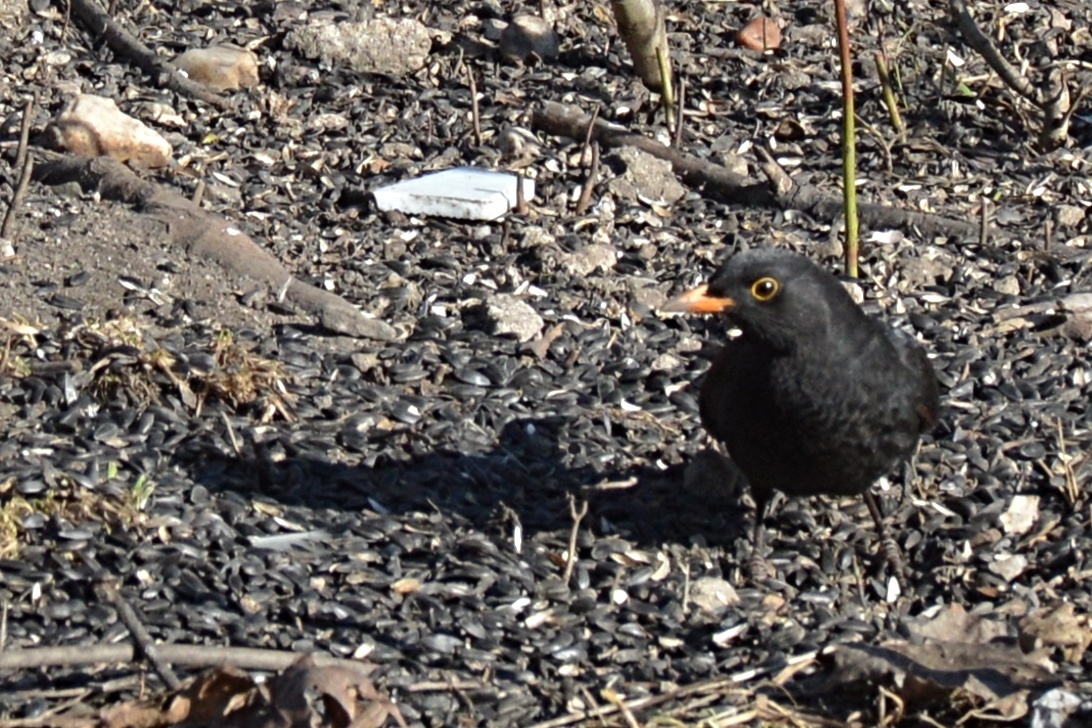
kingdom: Animalia
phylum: Chordata
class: Aves
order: Passeriformes
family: Turdidae
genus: Turdus
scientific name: Turdus merula
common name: Common blackbird
